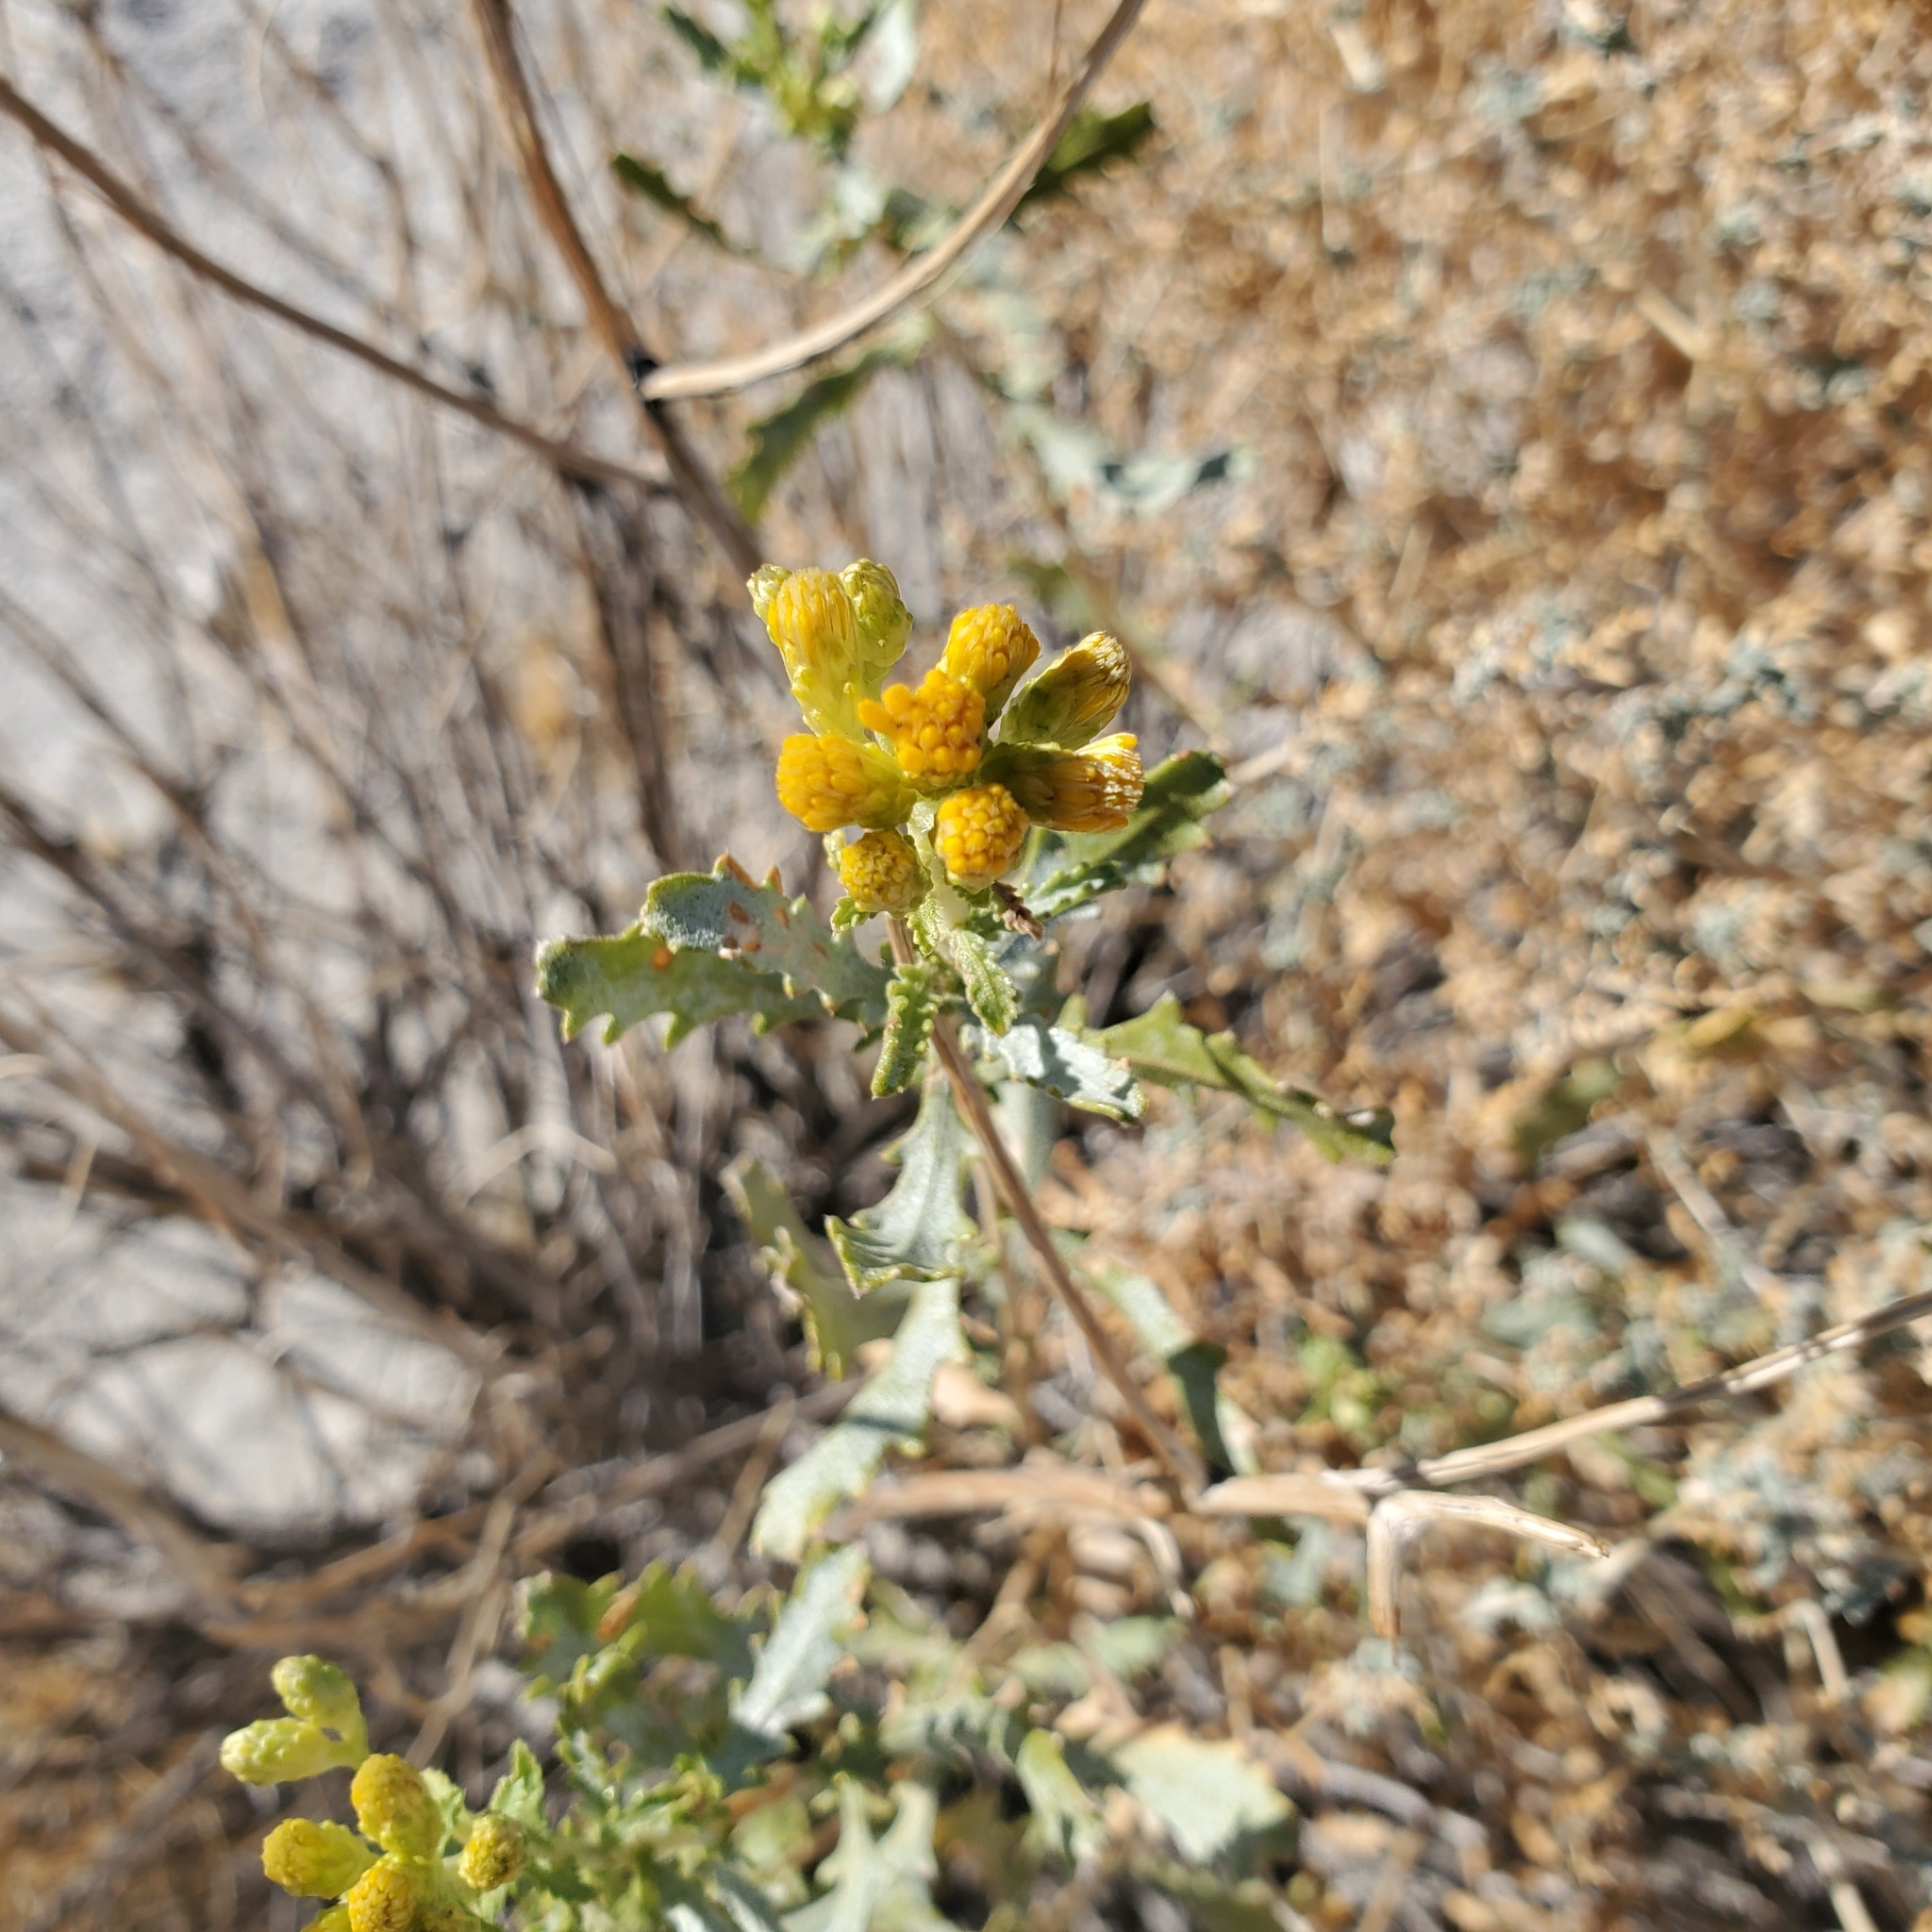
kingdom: Plantae
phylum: Tracheophyta
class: Magnoliopsida
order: Asterales
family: Asteraceae
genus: Isocoma
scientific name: Isocoma acradenia
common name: Alkali jimmyweed
